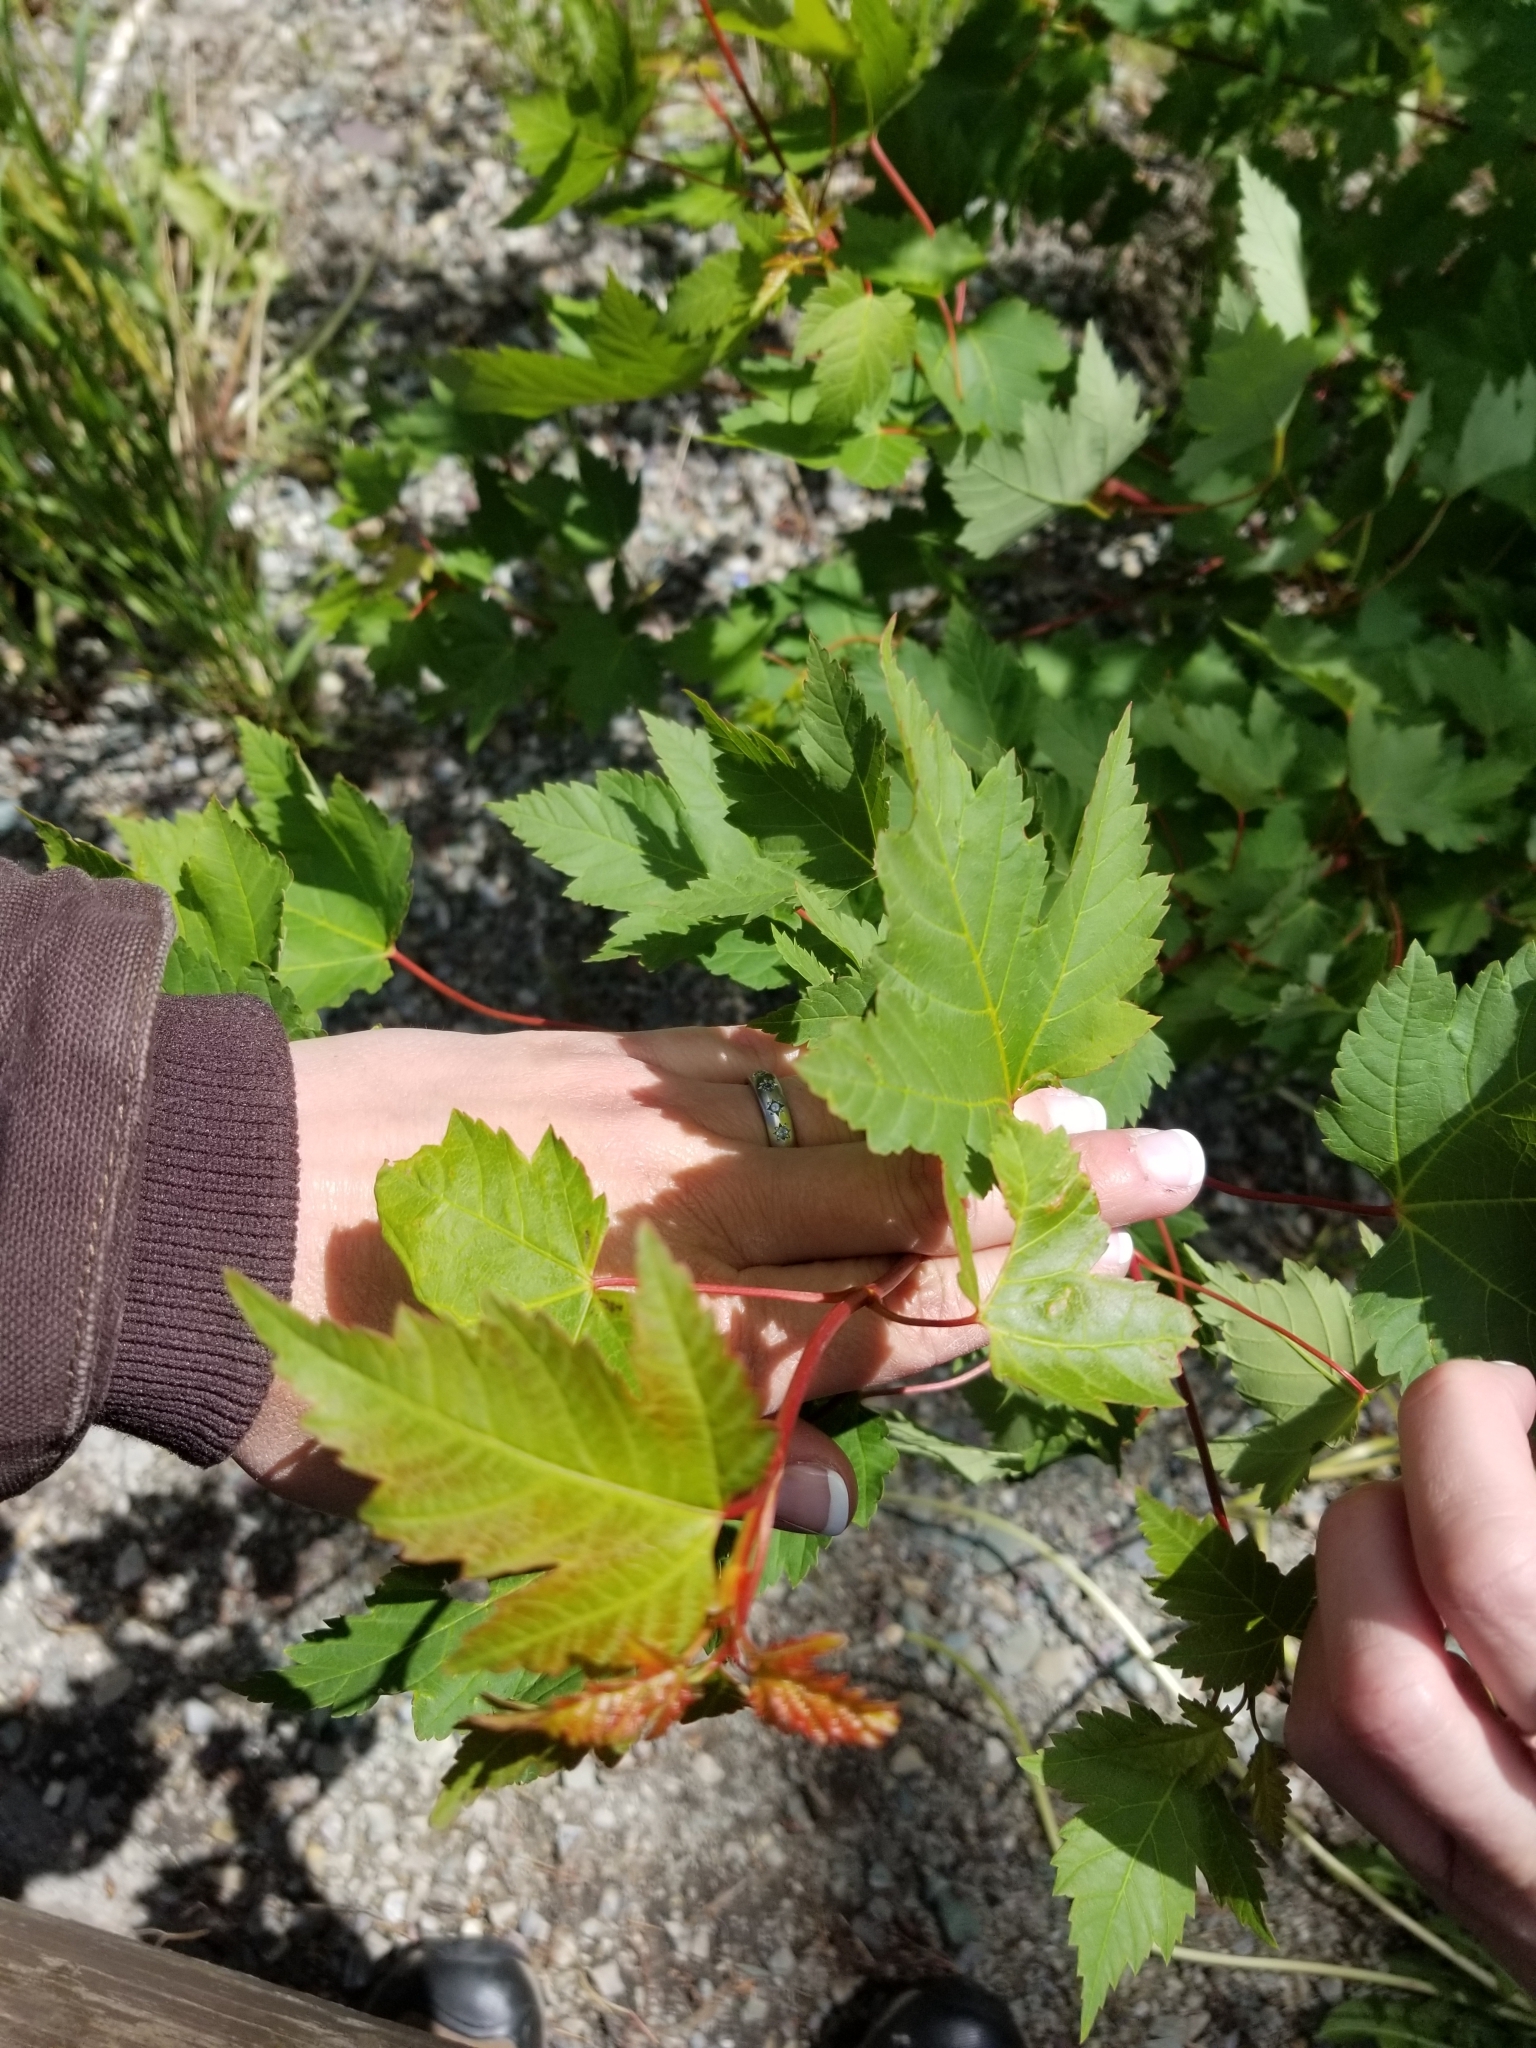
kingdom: Plantae
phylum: Tracheophyta
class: Magnoliopsida
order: Sapindales
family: Sapindaceae
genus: Acer
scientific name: Acer glabrum
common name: Rocky mountain maple
